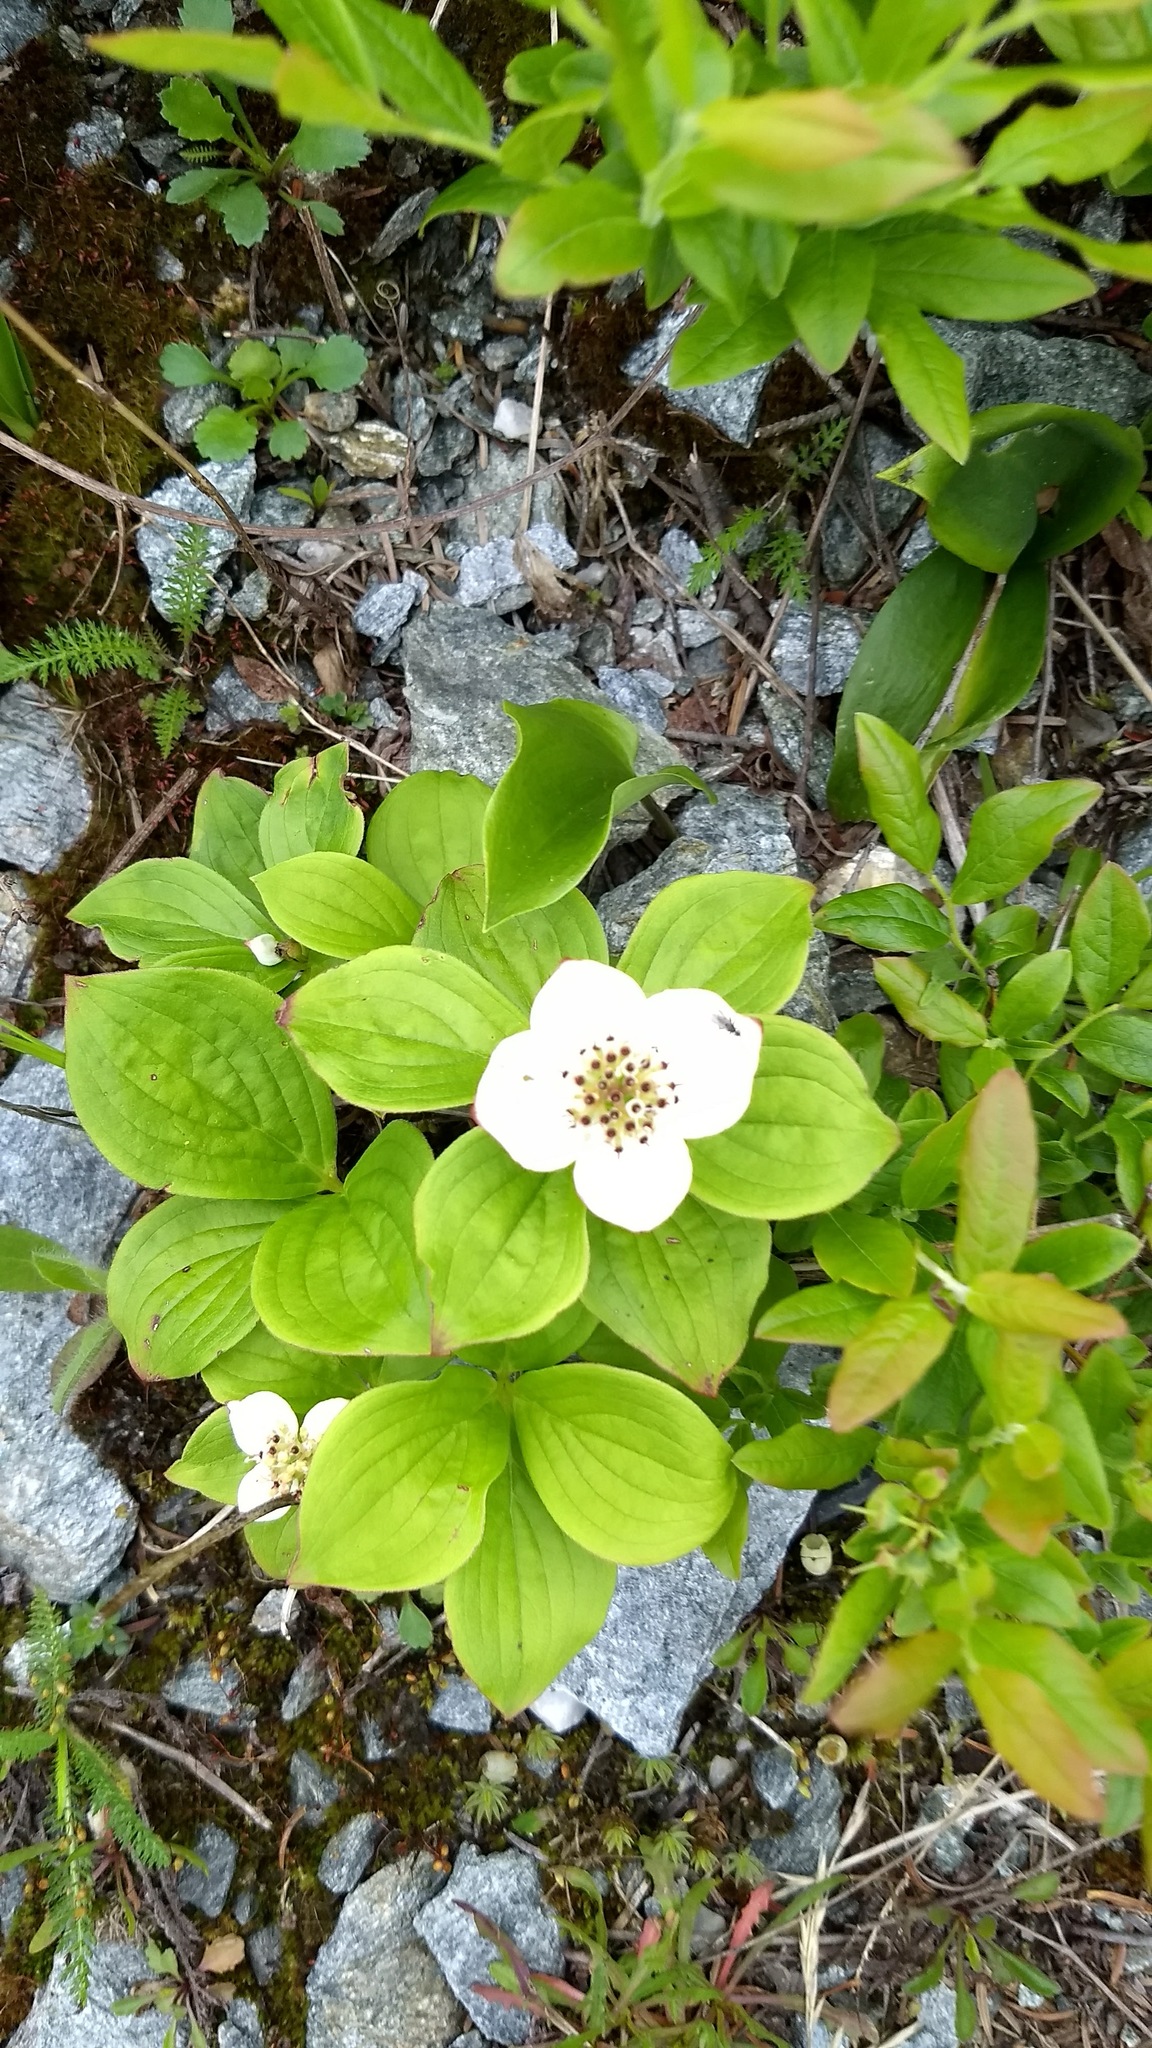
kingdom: Plantae
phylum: Tracheophyta
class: Magnoliopsida
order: Cornales
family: Cornaceae
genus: Cornus
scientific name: Cornus canadensis
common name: Creeping dogwood
